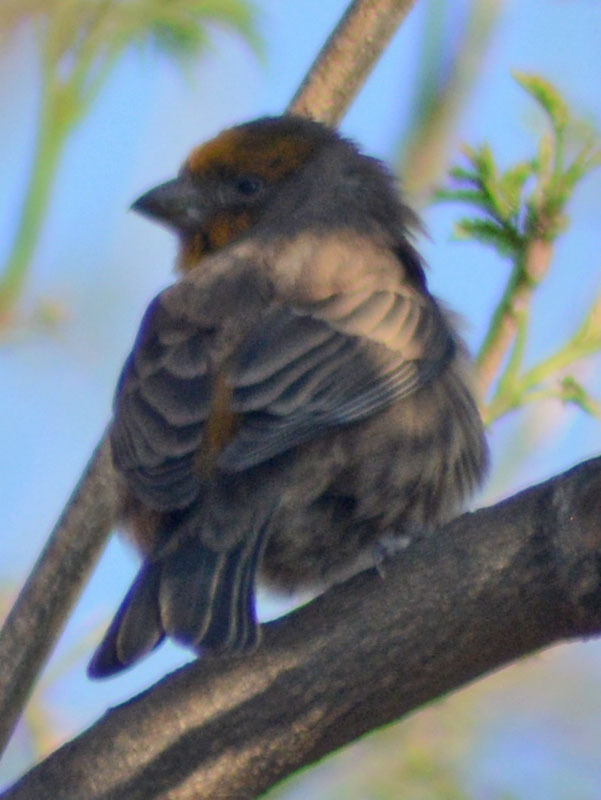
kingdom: Animalia
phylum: Chordata
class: Aves
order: Passeriformes
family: Fringillidae
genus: Haemorhous
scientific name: Haemorhous mexicanus
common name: House finch
